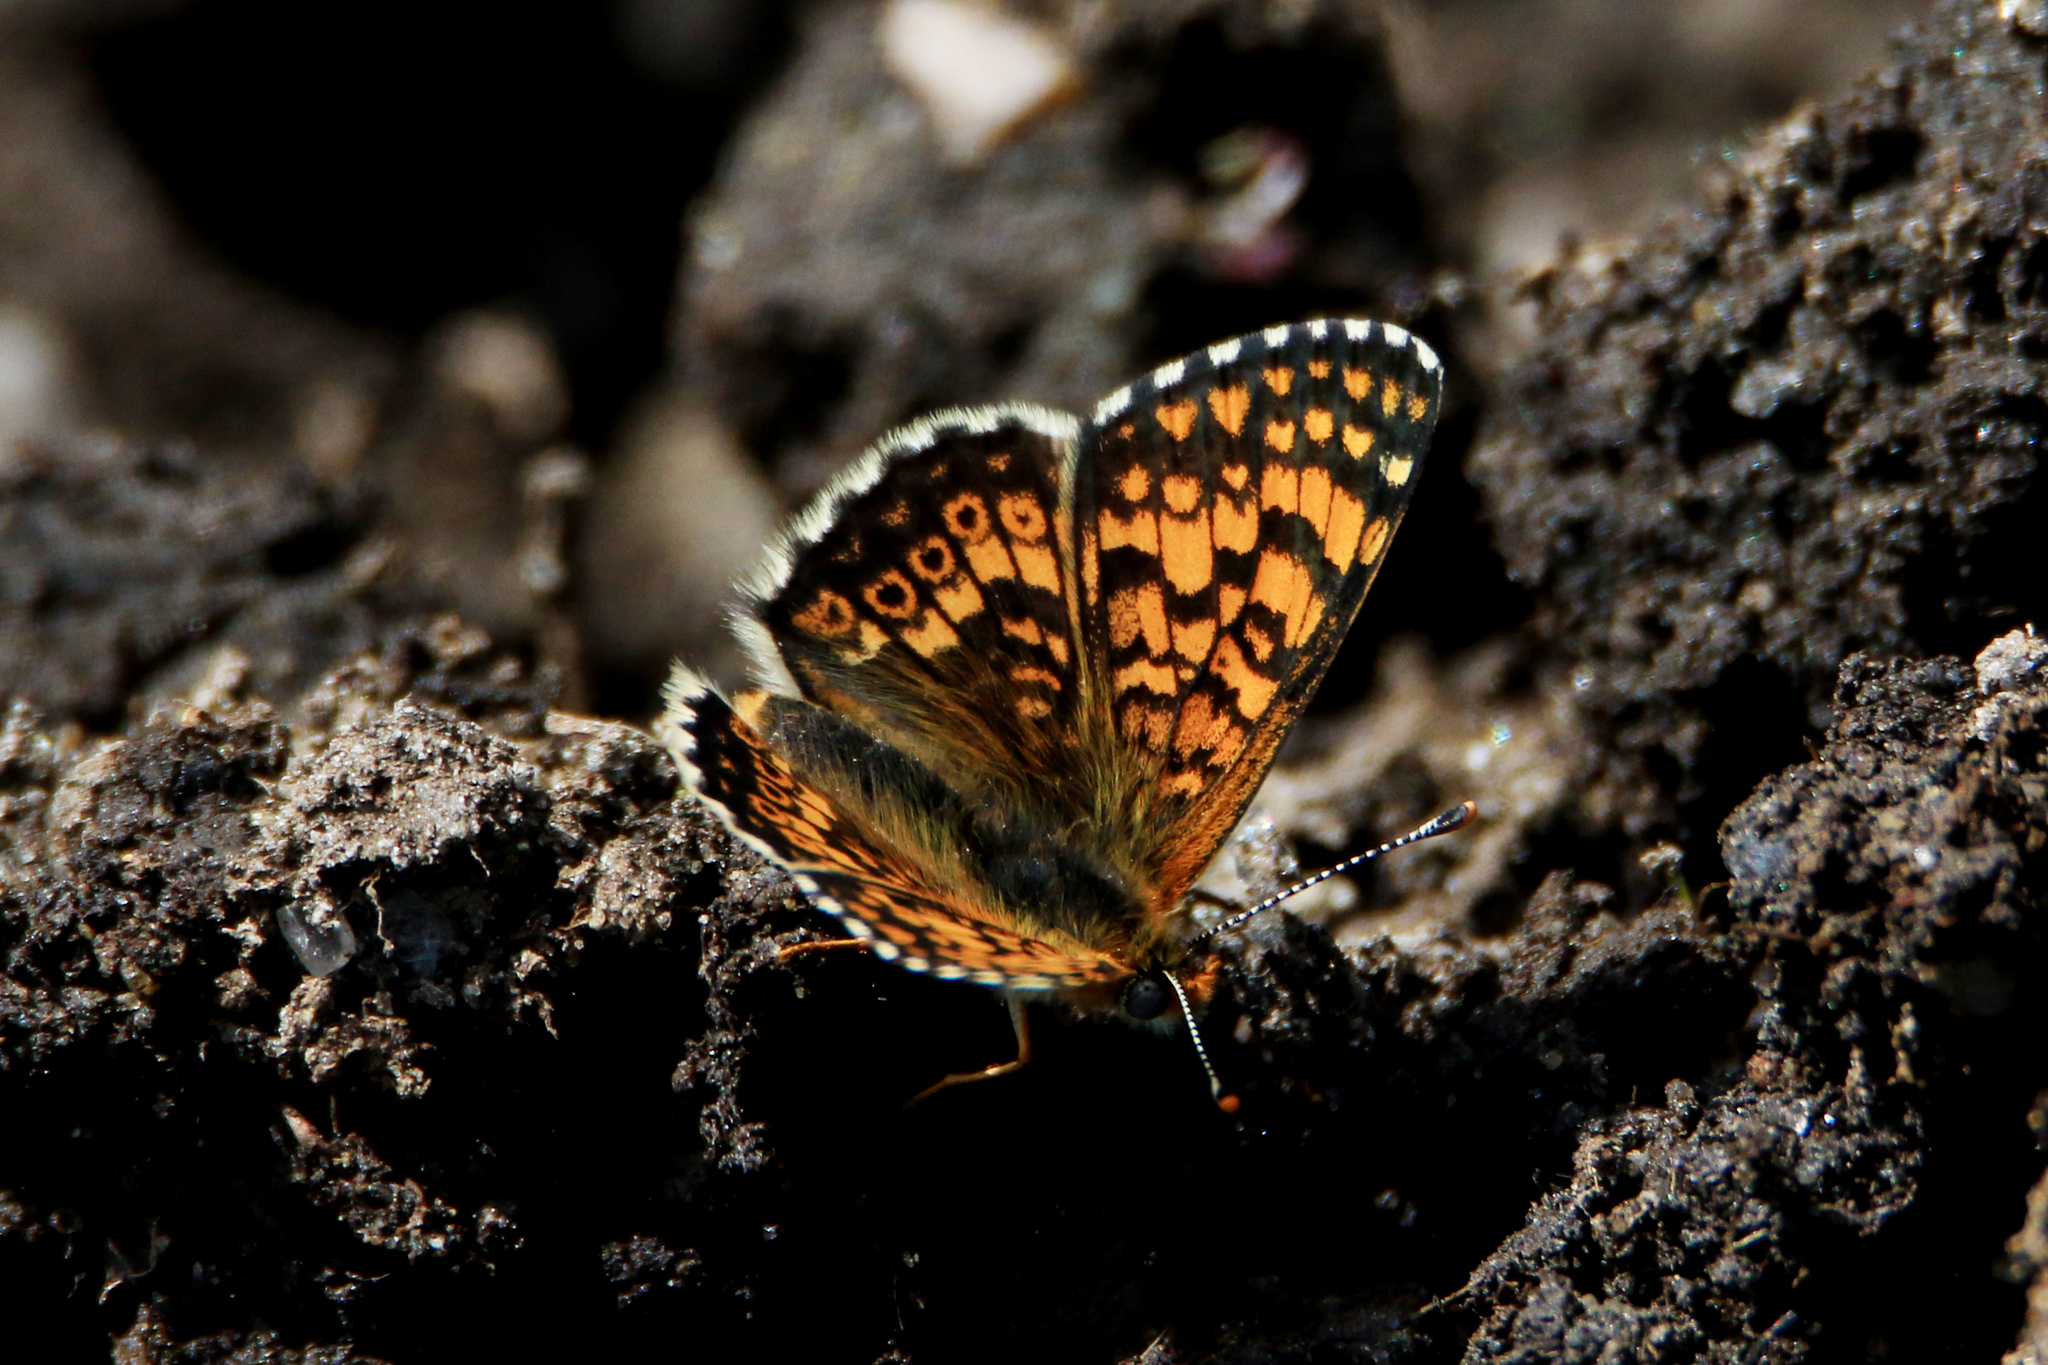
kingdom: Animalia
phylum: Arthropoda
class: Insecta
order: Lepidoptera
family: Nymphalidae
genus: Melitaea
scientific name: Melitaea cinxia
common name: Glanville fritillary
